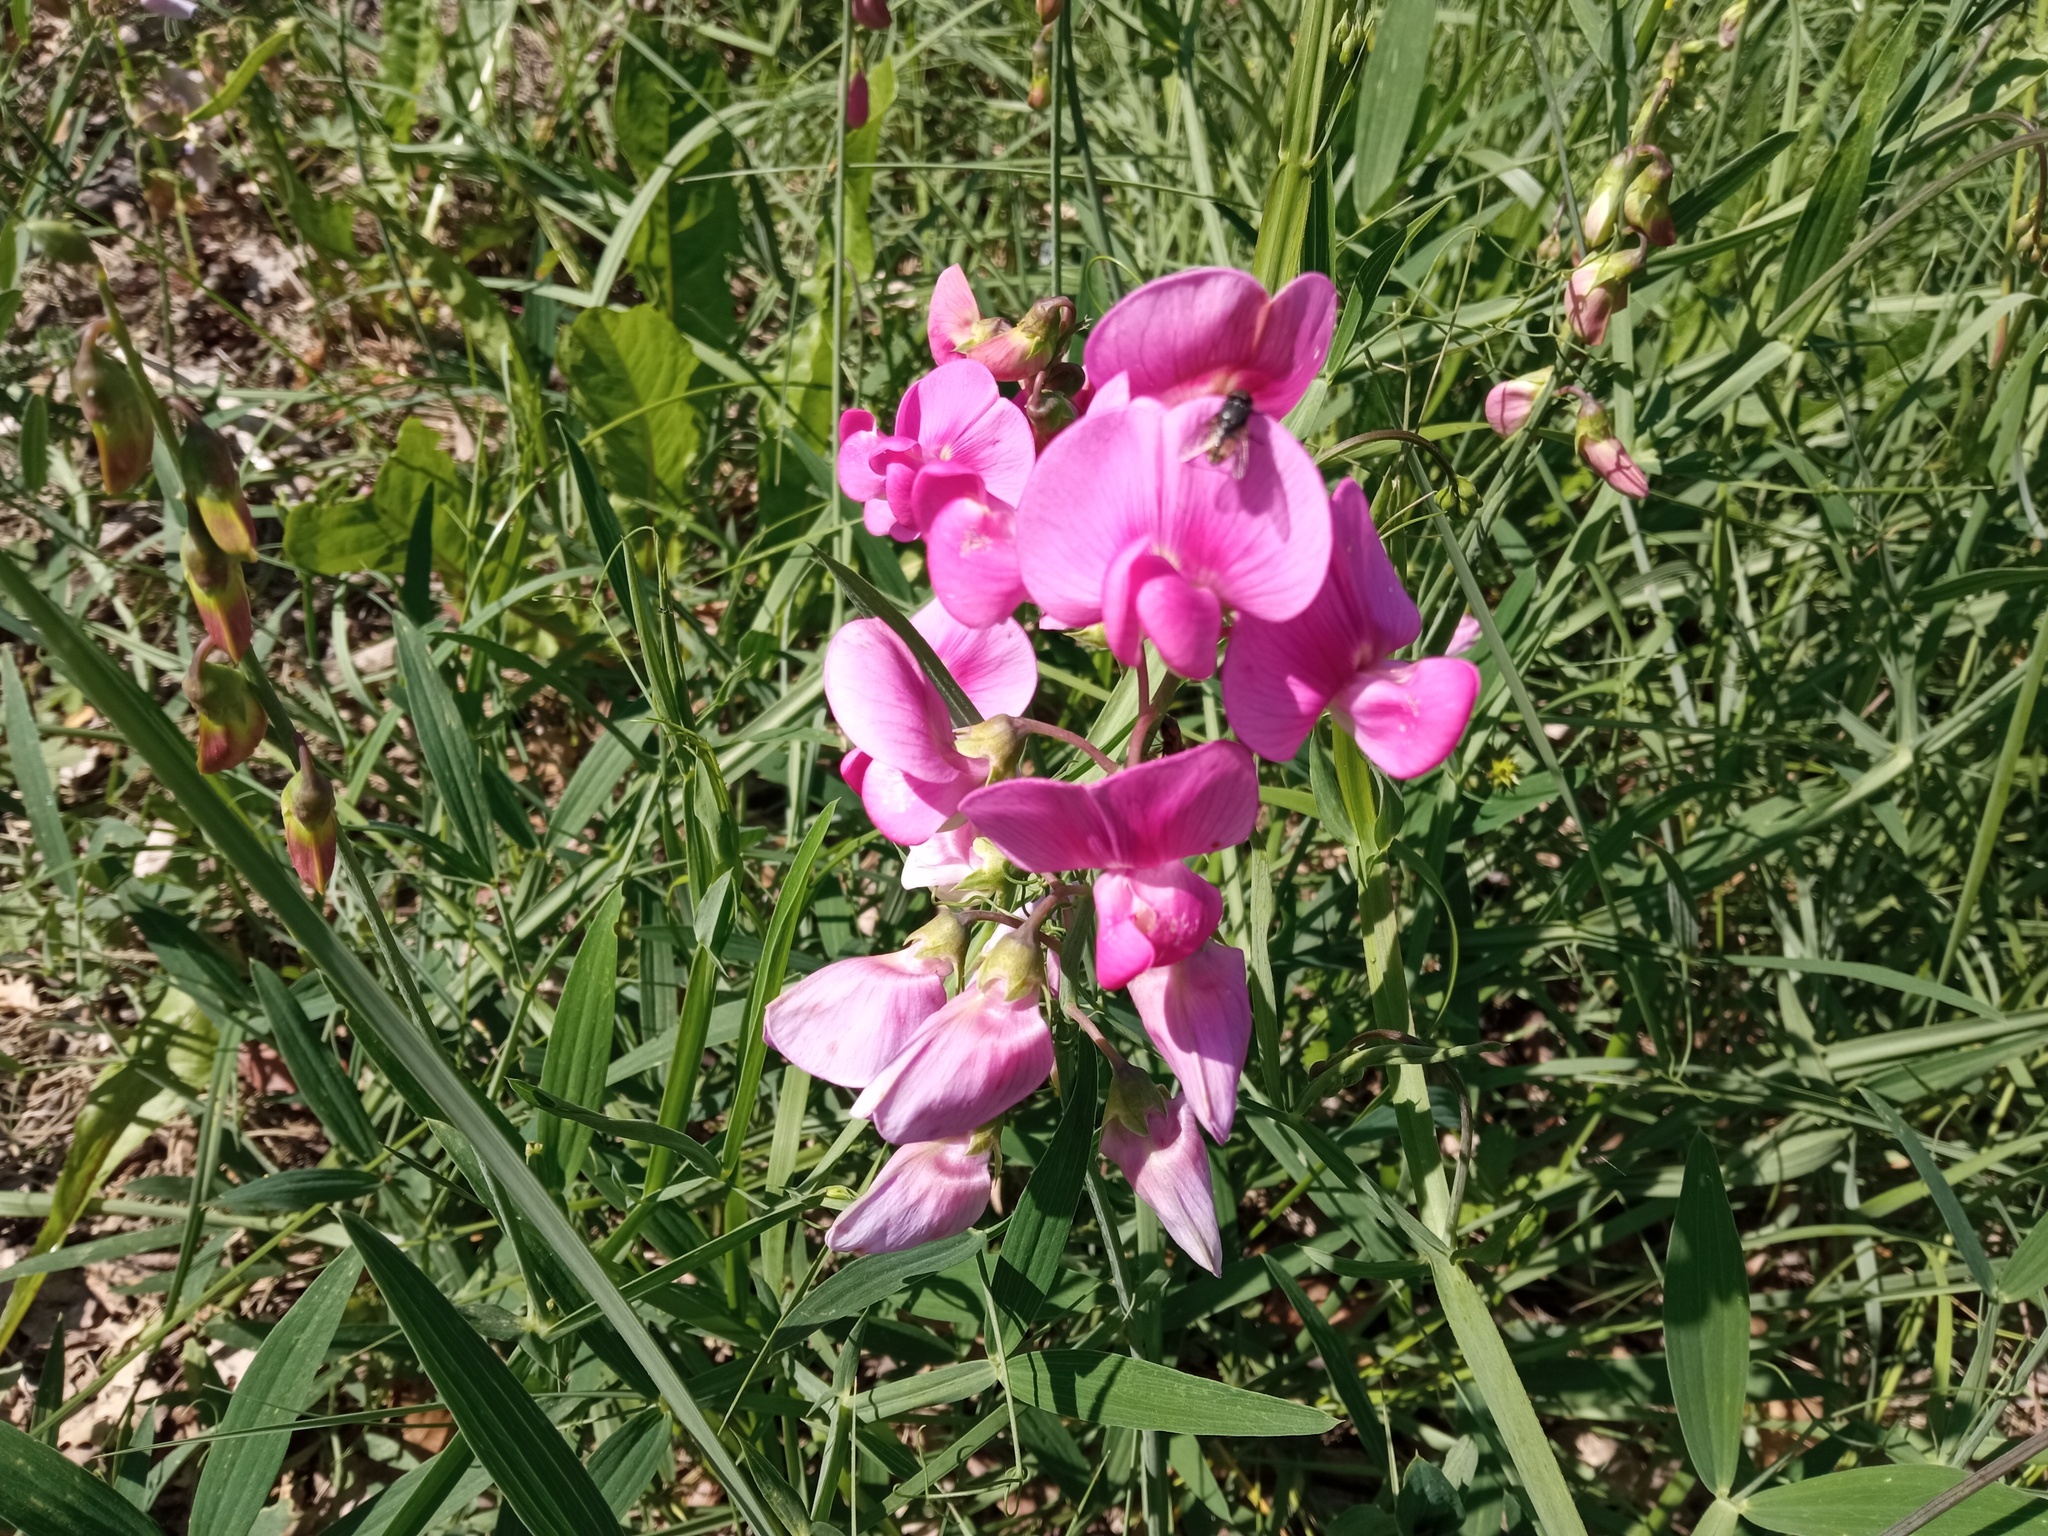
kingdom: Plantae
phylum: Tracheophyta
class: Magnoliopsida
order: Fabales
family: Fabaceae
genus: Lathyrus
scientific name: Lathyrus latifolius
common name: Perennial pea
